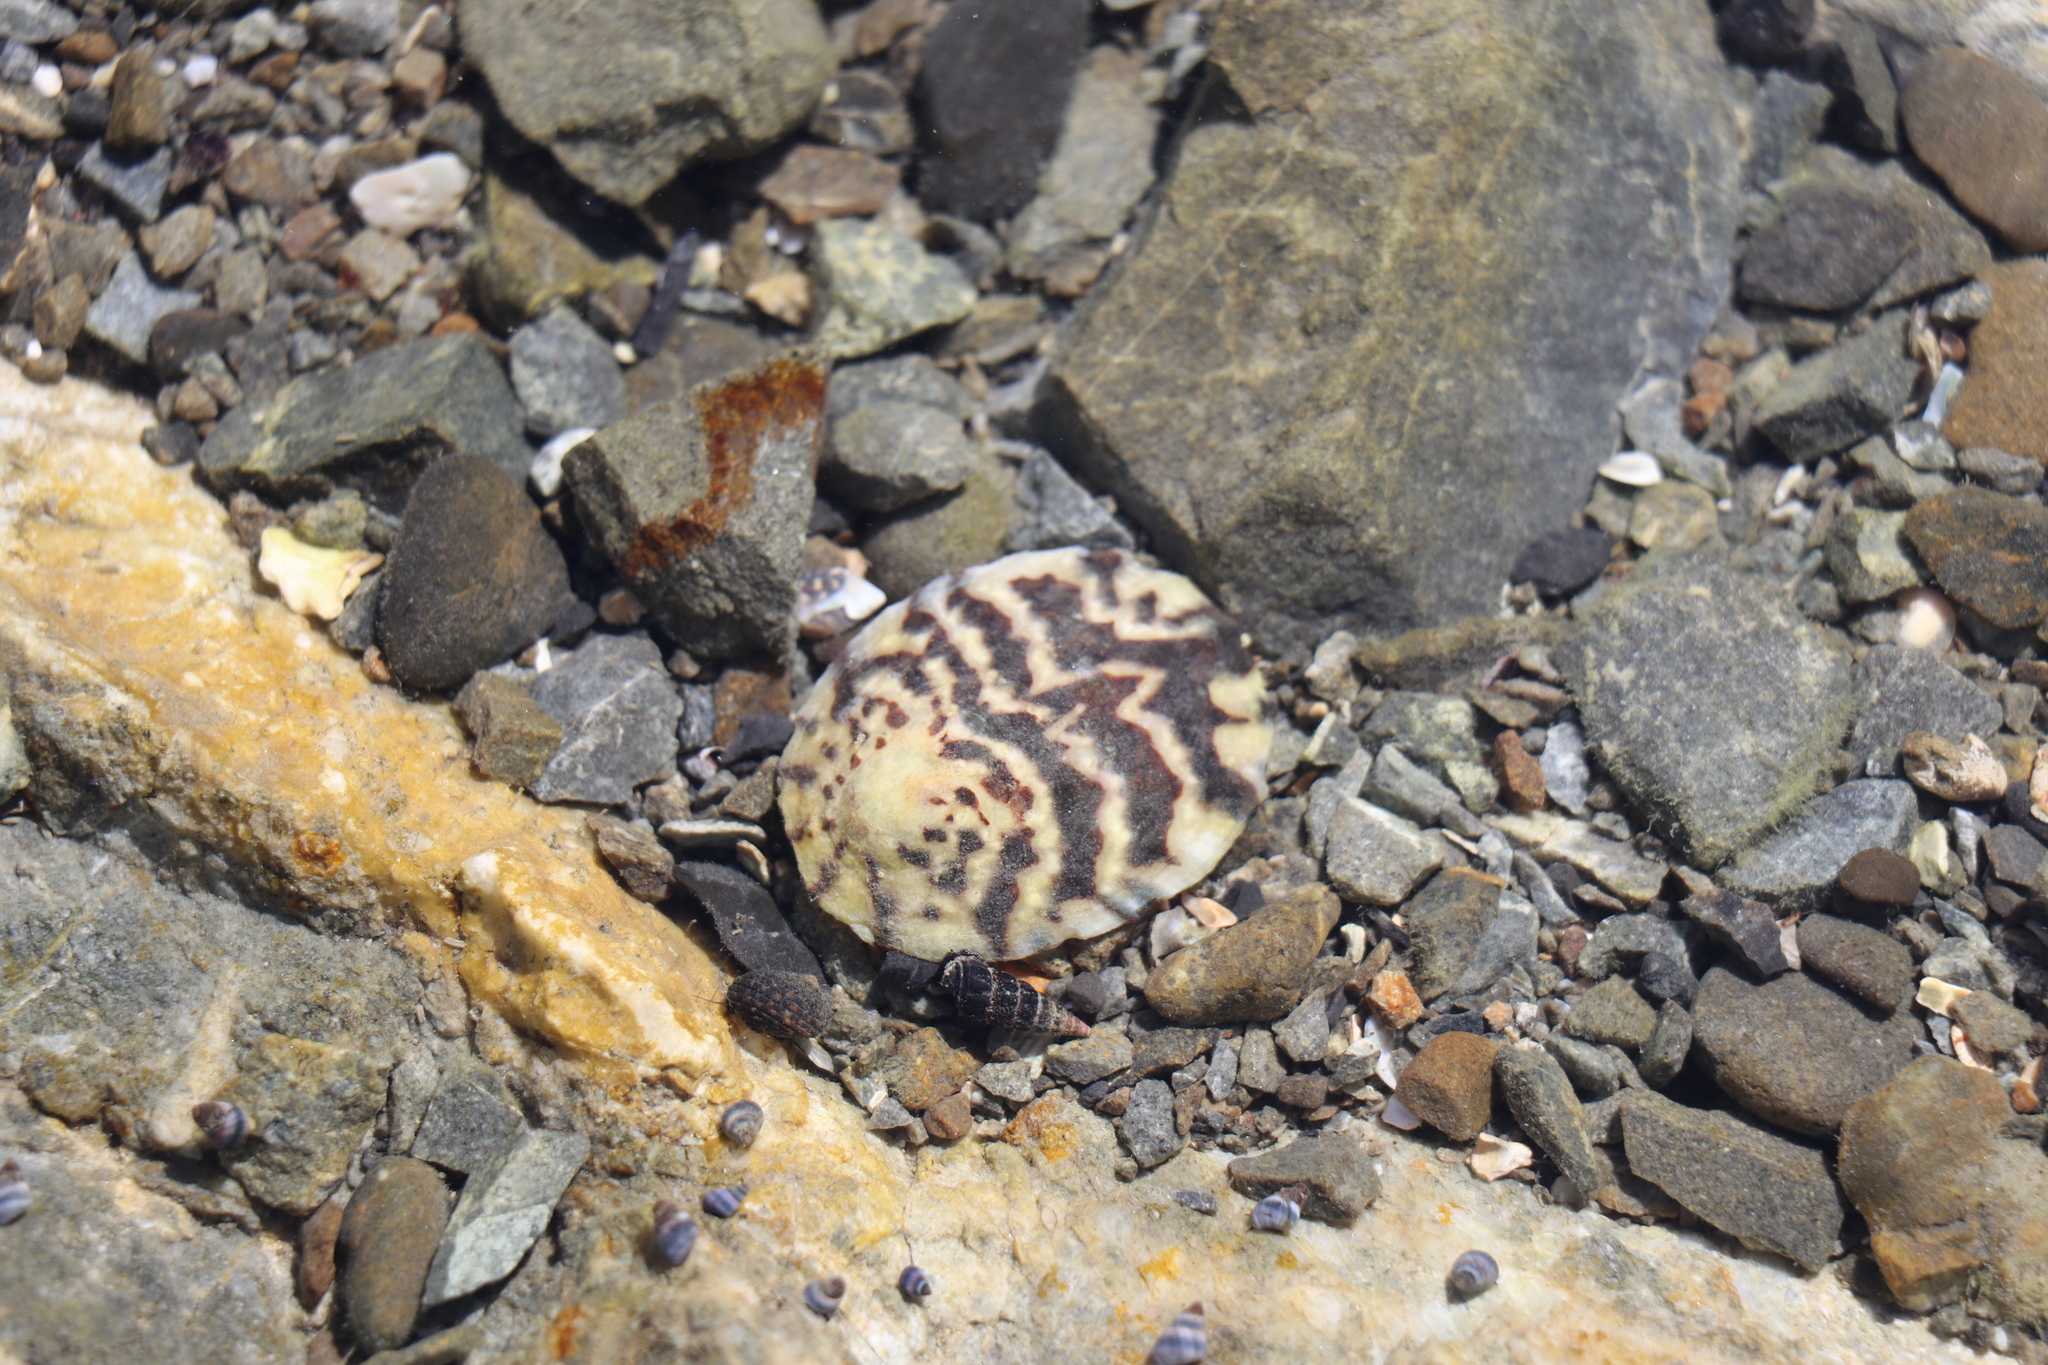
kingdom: Animalia
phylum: Mollusca
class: Gastropoda
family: Nacellidae
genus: Cellana
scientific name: Cellana radians
